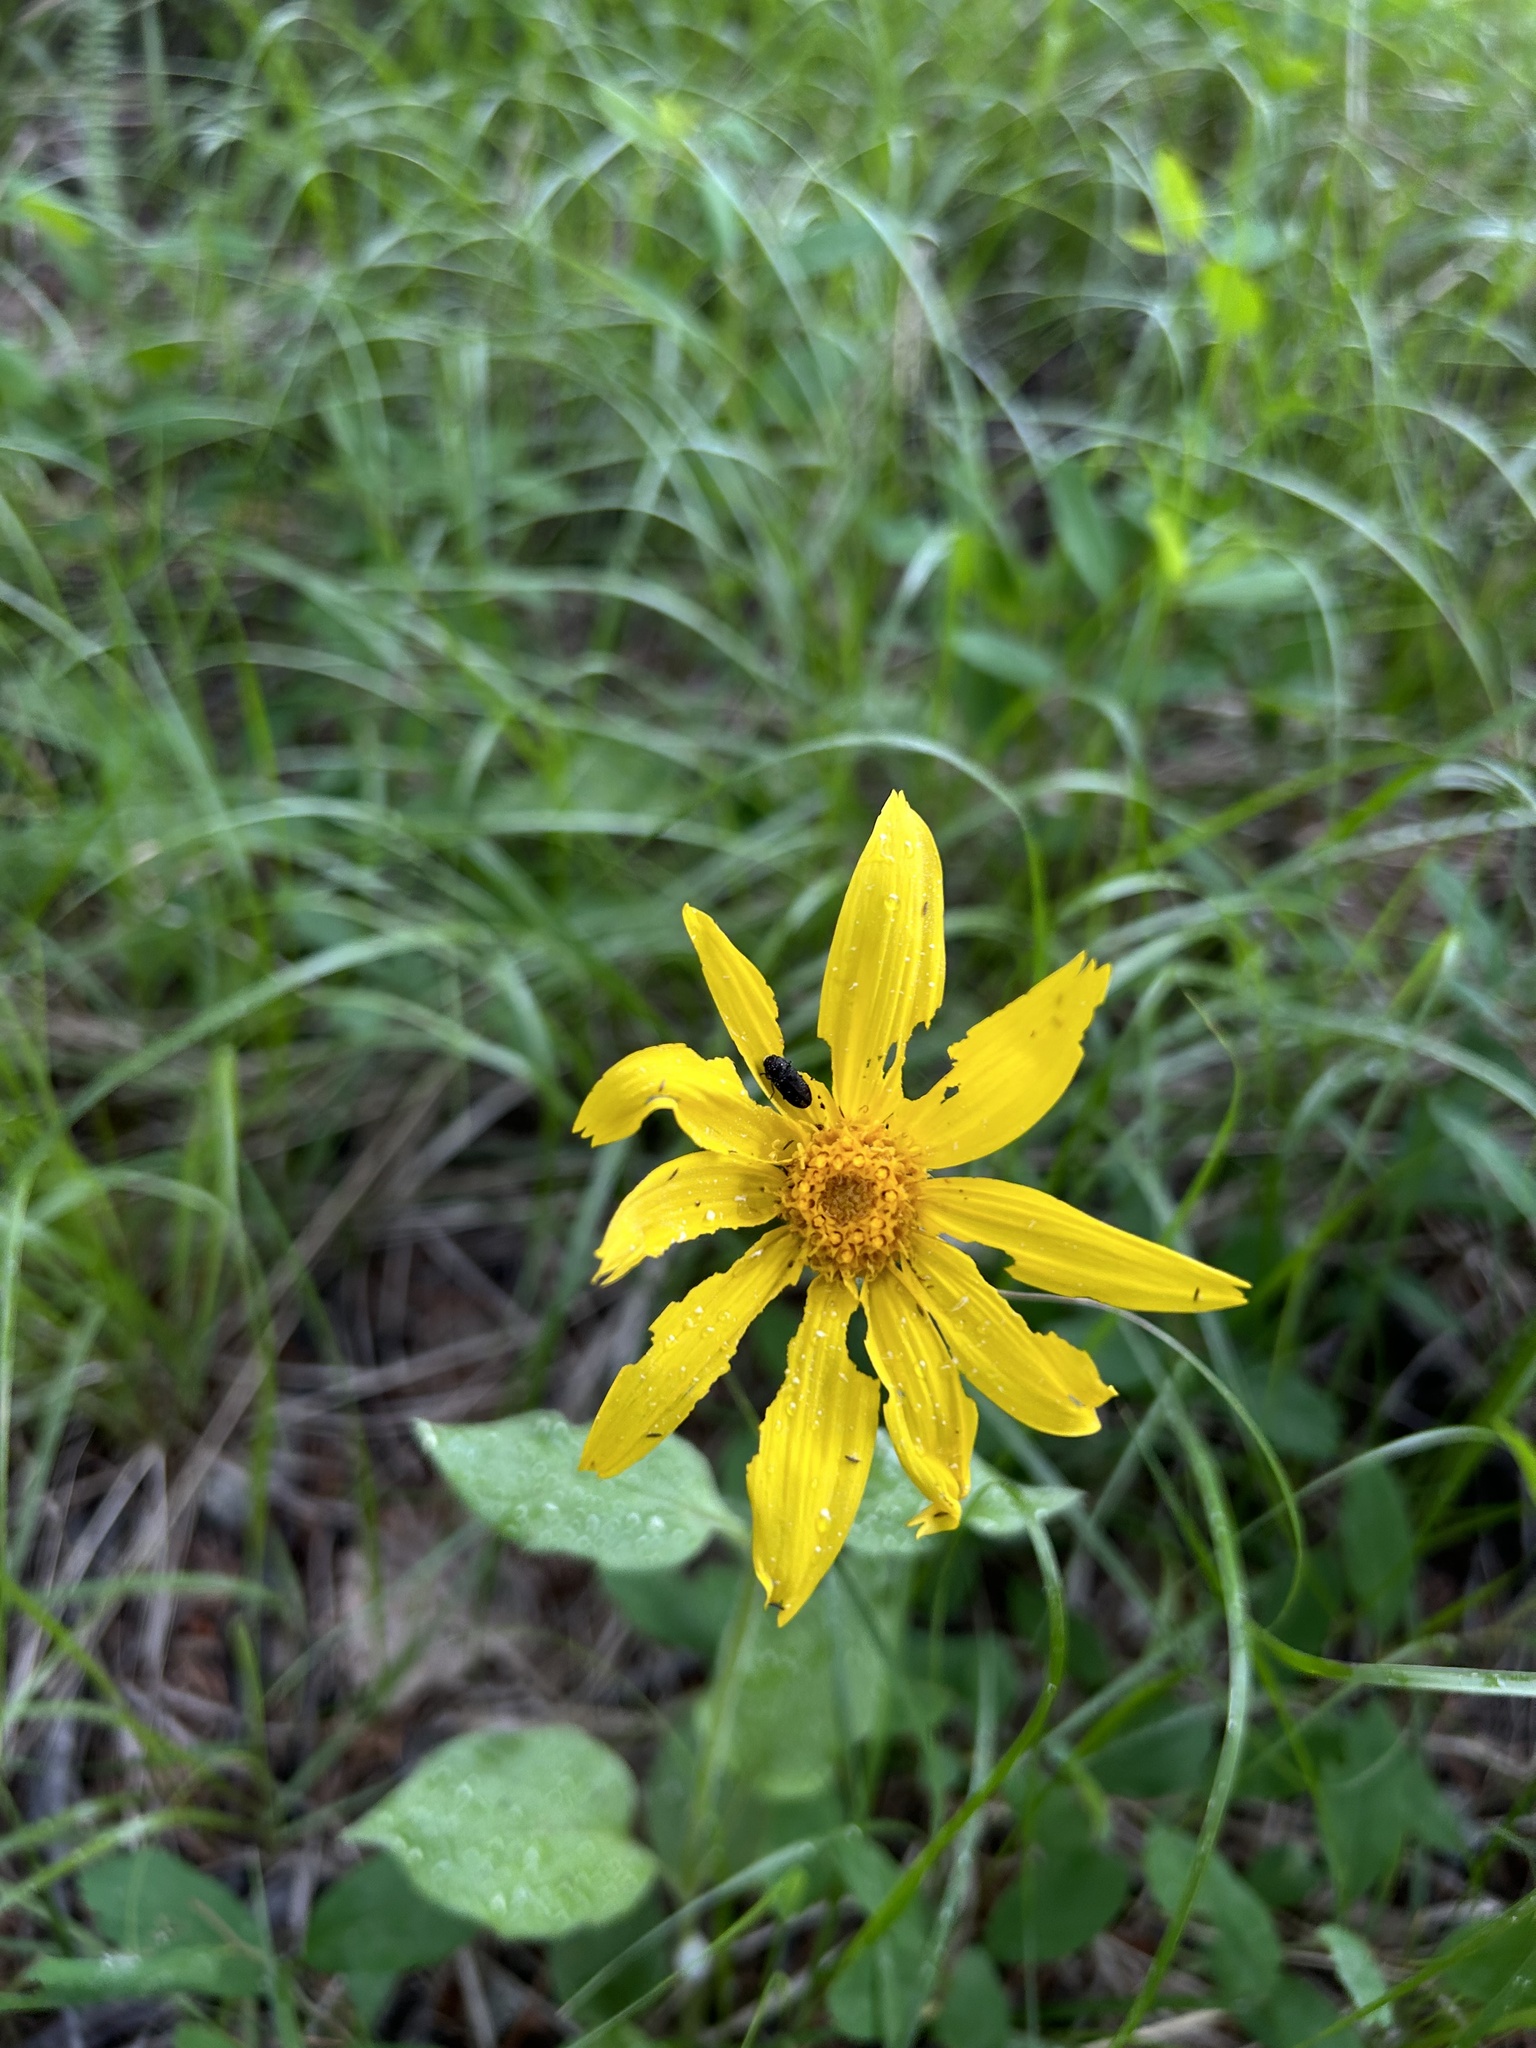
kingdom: Plantae
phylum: Tracheophyta
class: Magnoliopsida
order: Asterales
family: Asteraceae
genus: Arnica
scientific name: Arnica cordifolia
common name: Heart-leaf arnica
